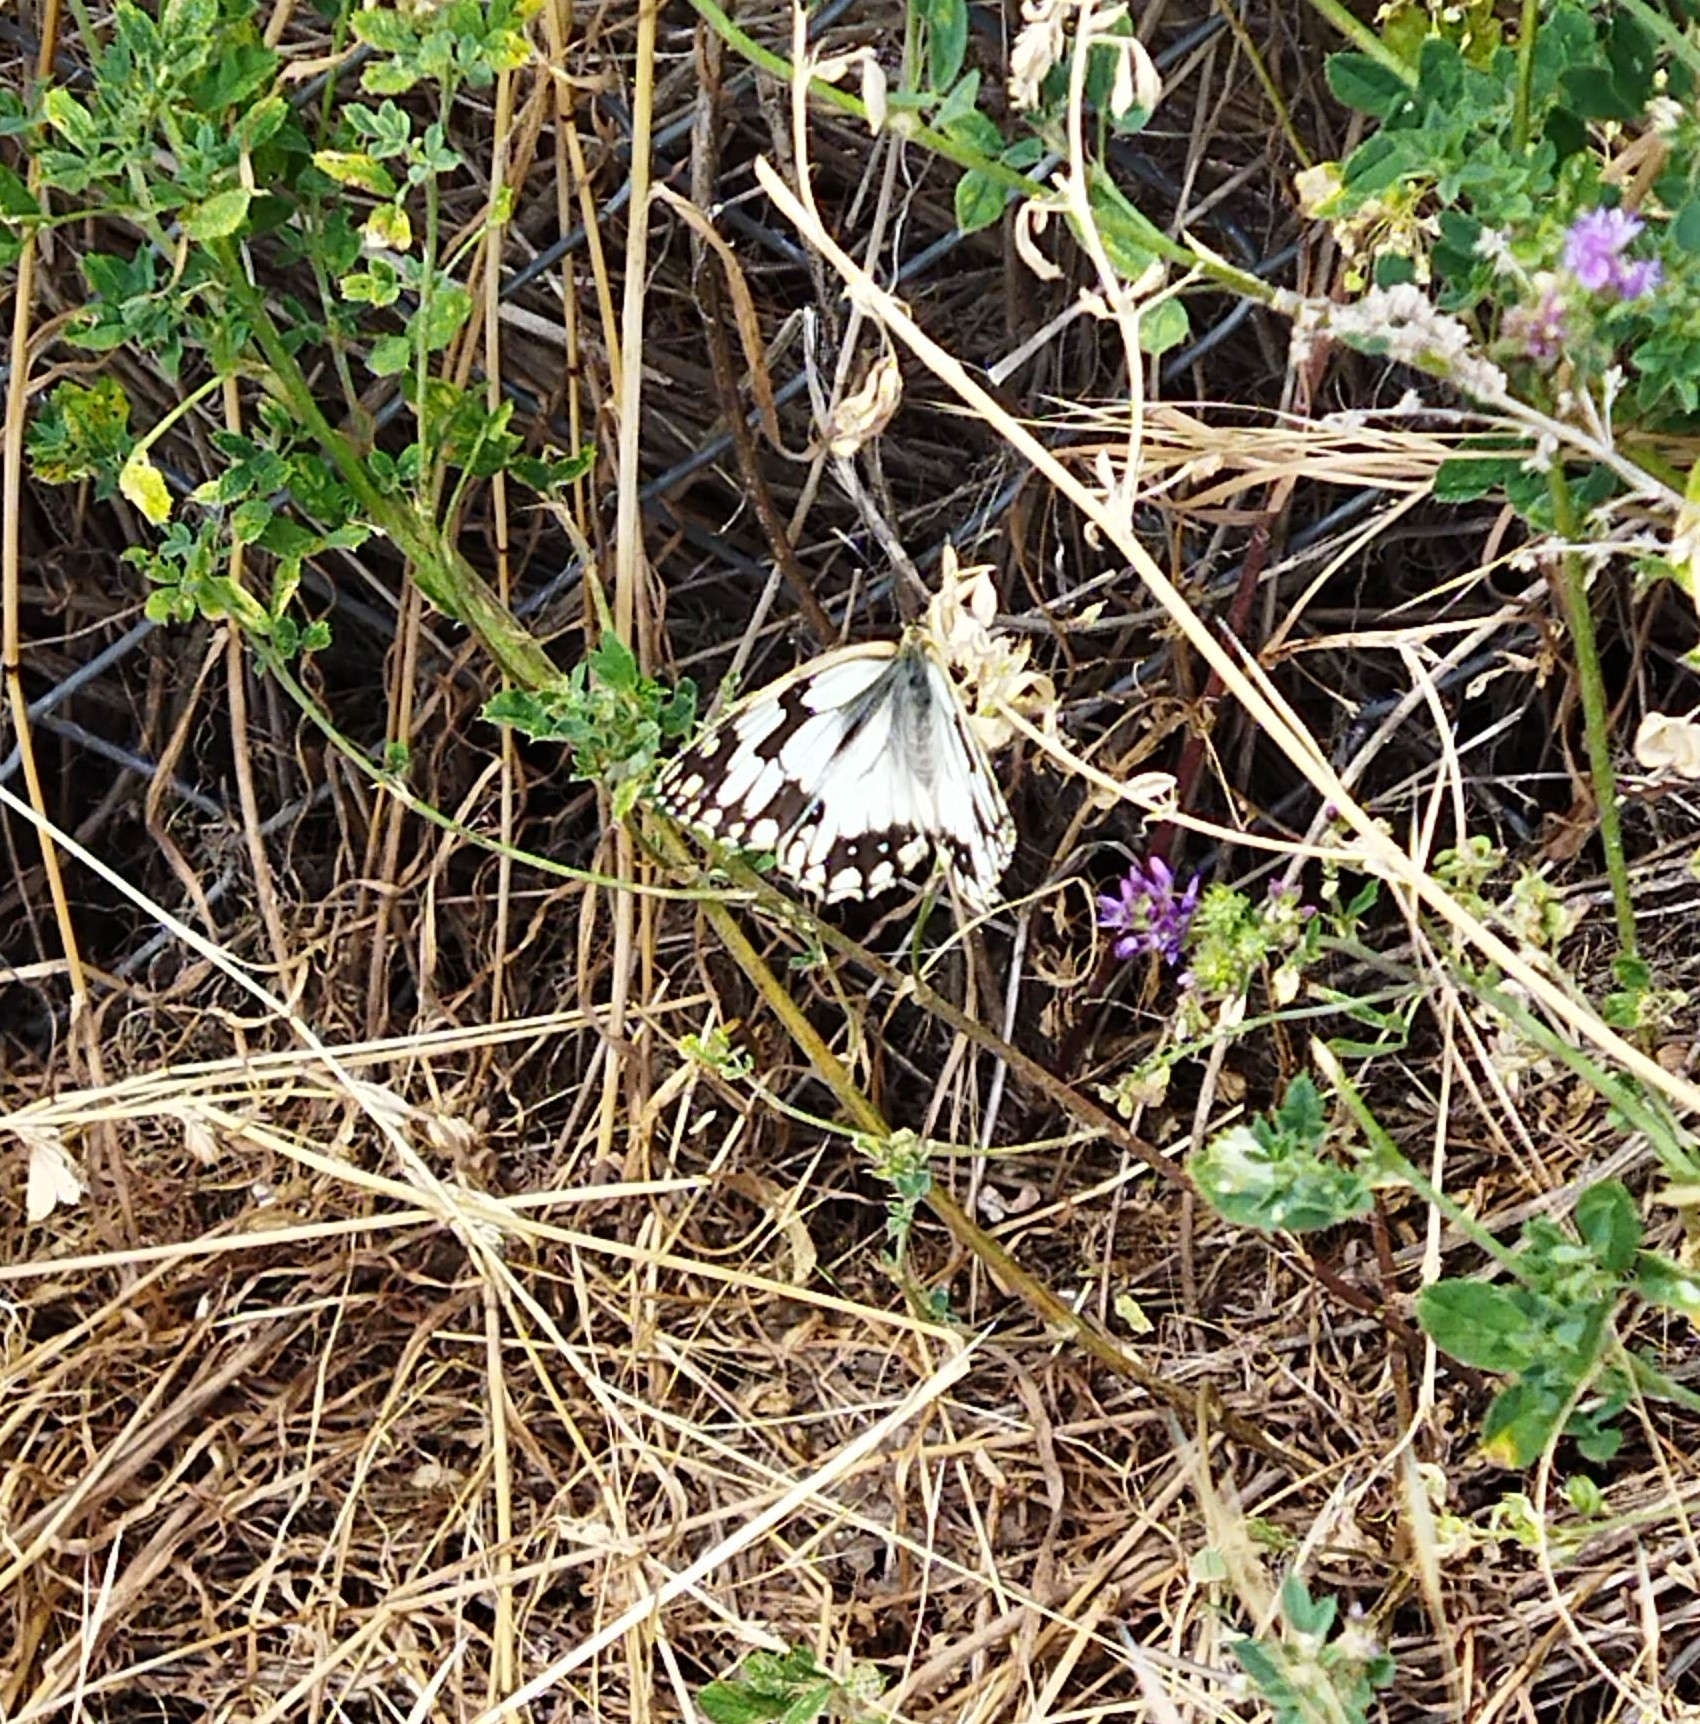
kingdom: Animalia
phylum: Arthropoda
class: Insecta
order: Lepidoptera
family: Nymphalidae
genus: Melanargia
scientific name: Melanargia lachesis
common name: Iberian marbled white
